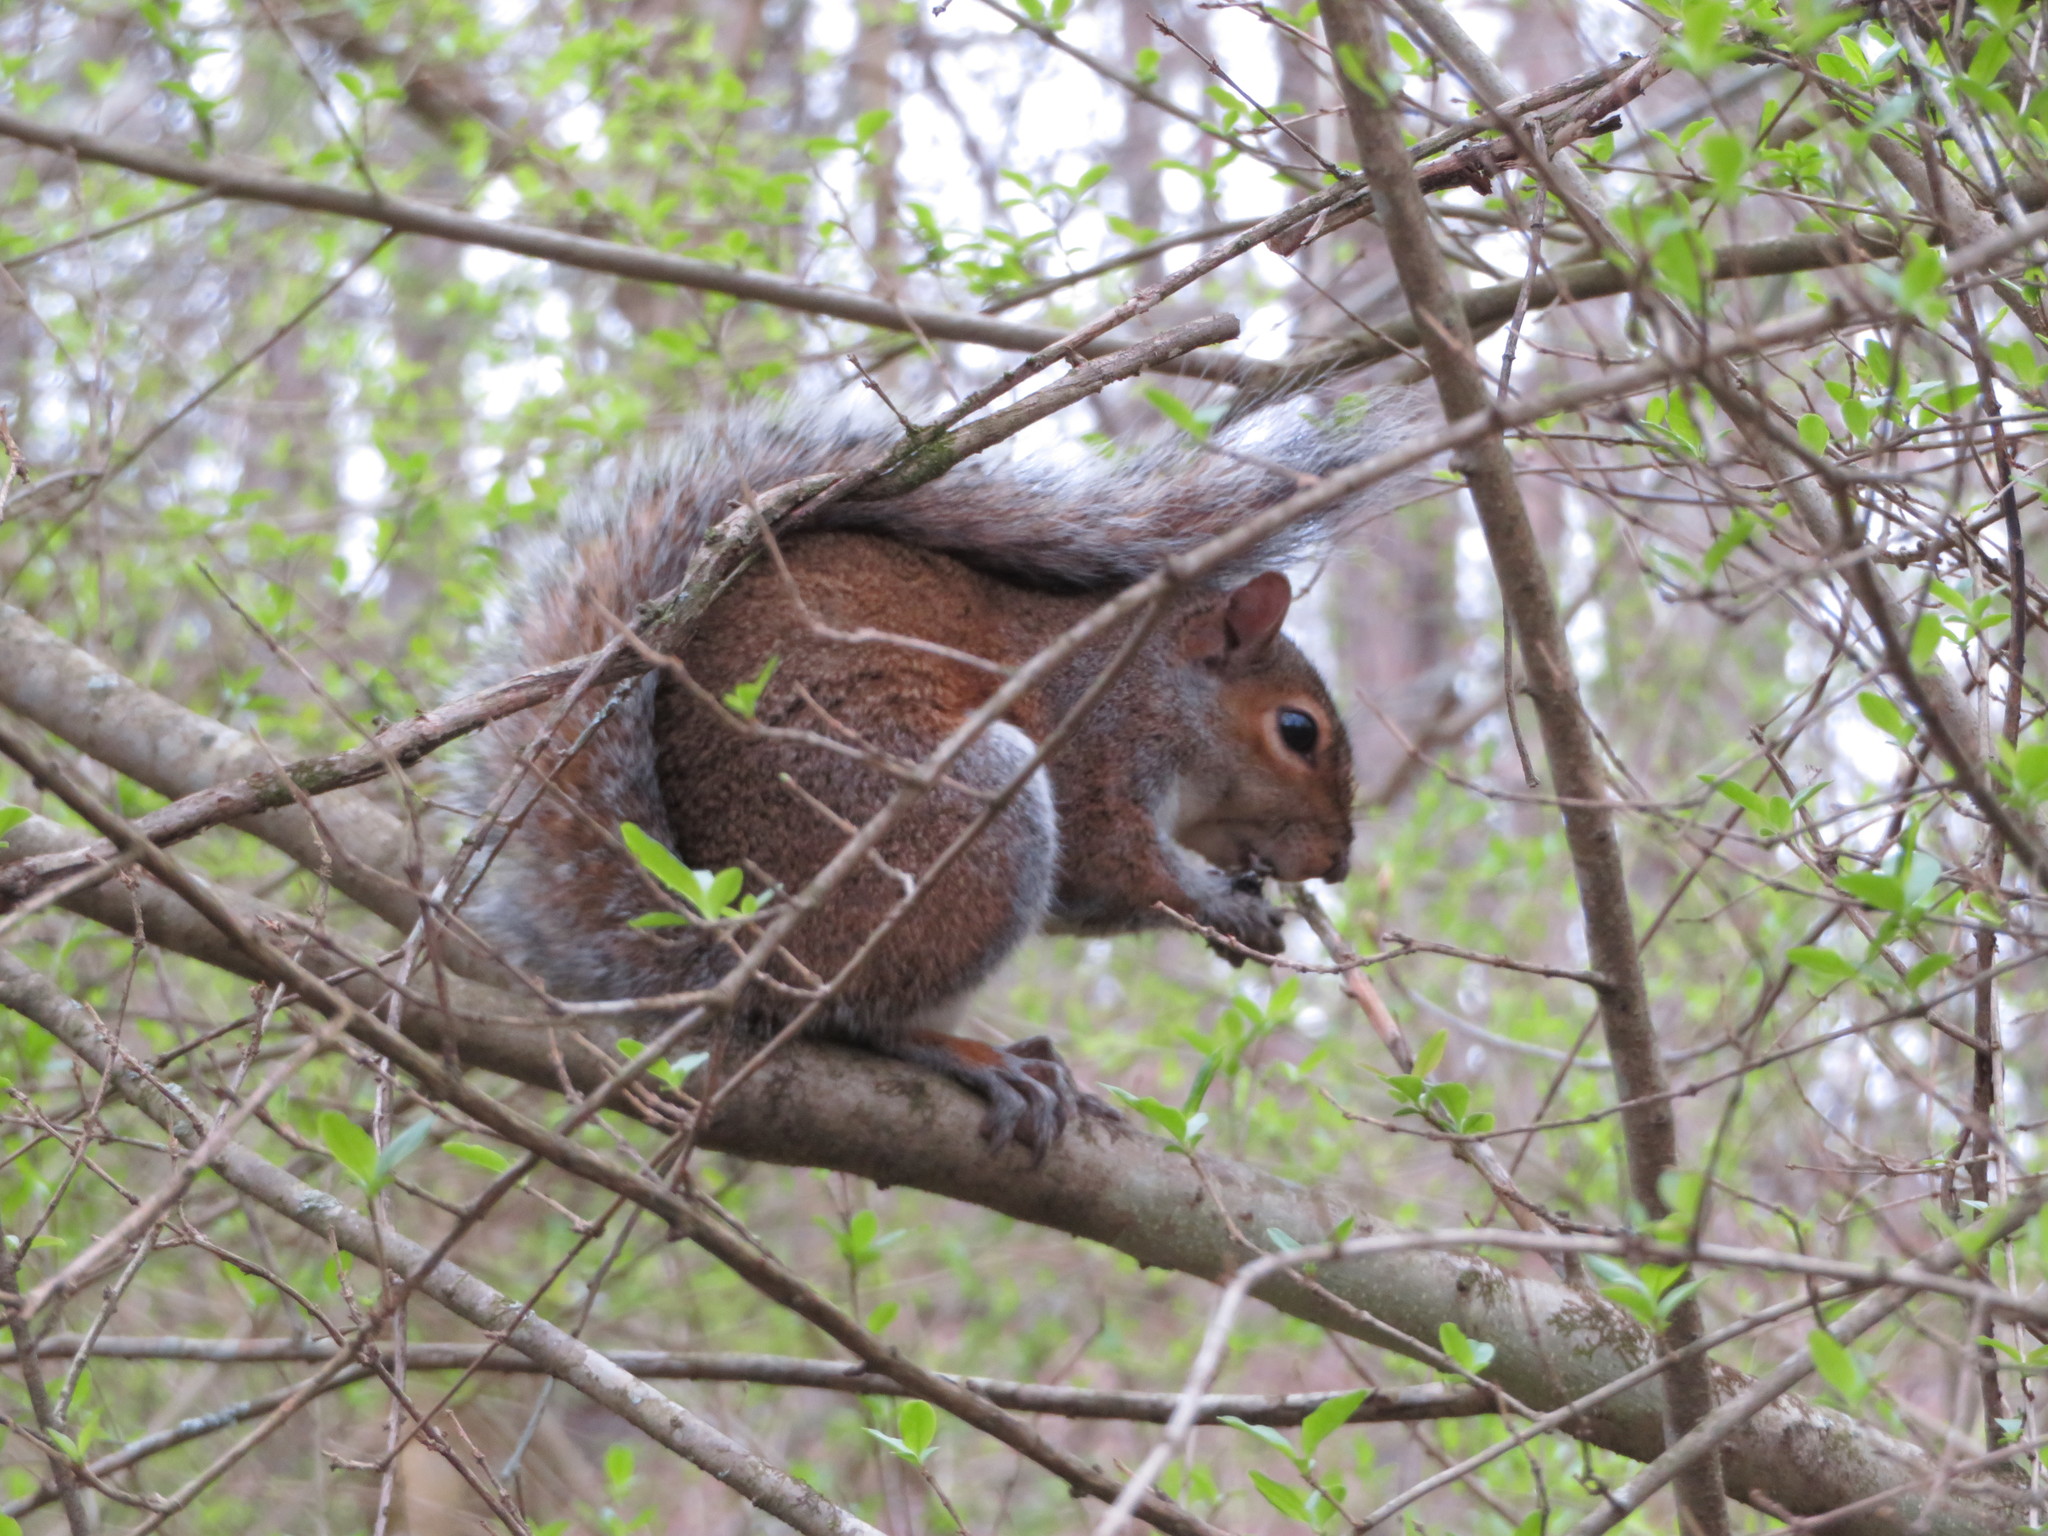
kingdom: Animalia
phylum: Chordata
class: Mammalia
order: Rodentia
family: Sciuridae
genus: Sciurus
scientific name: Sciurus carolinensis
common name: Eastern gray squirrel
